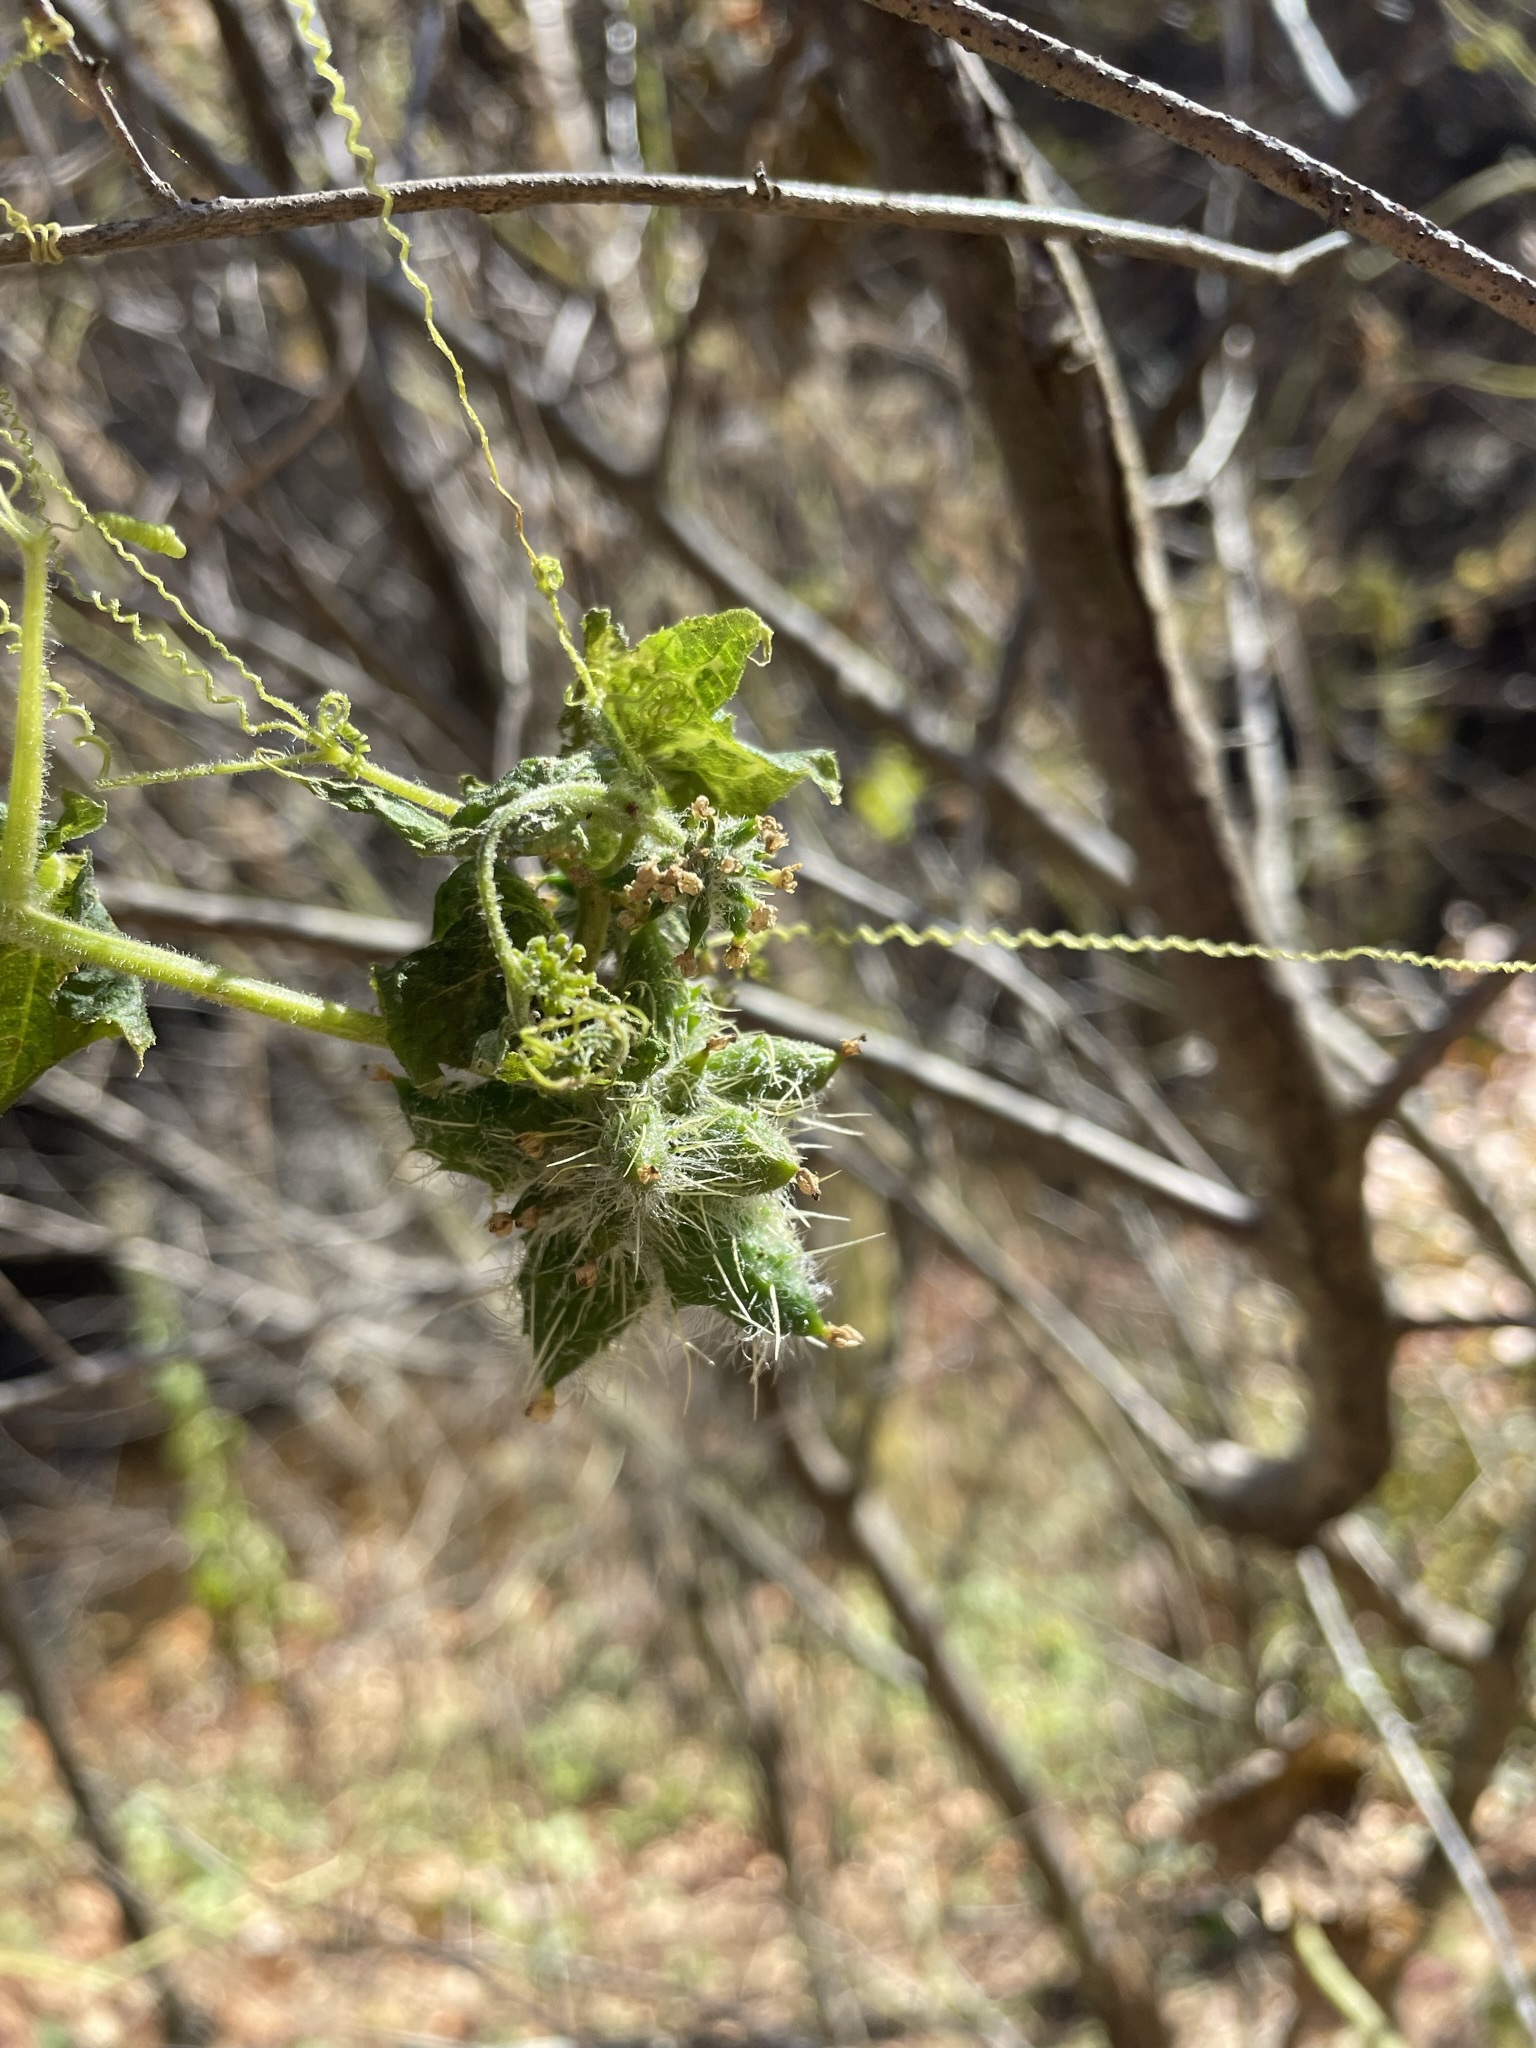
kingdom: Plantae
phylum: Tracheophyta
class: Magnoliopsida
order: Cucurbitales
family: Cucurbitaceae
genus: Sicyos
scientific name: Sicyos angulatus
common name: Angled burr cucumber
